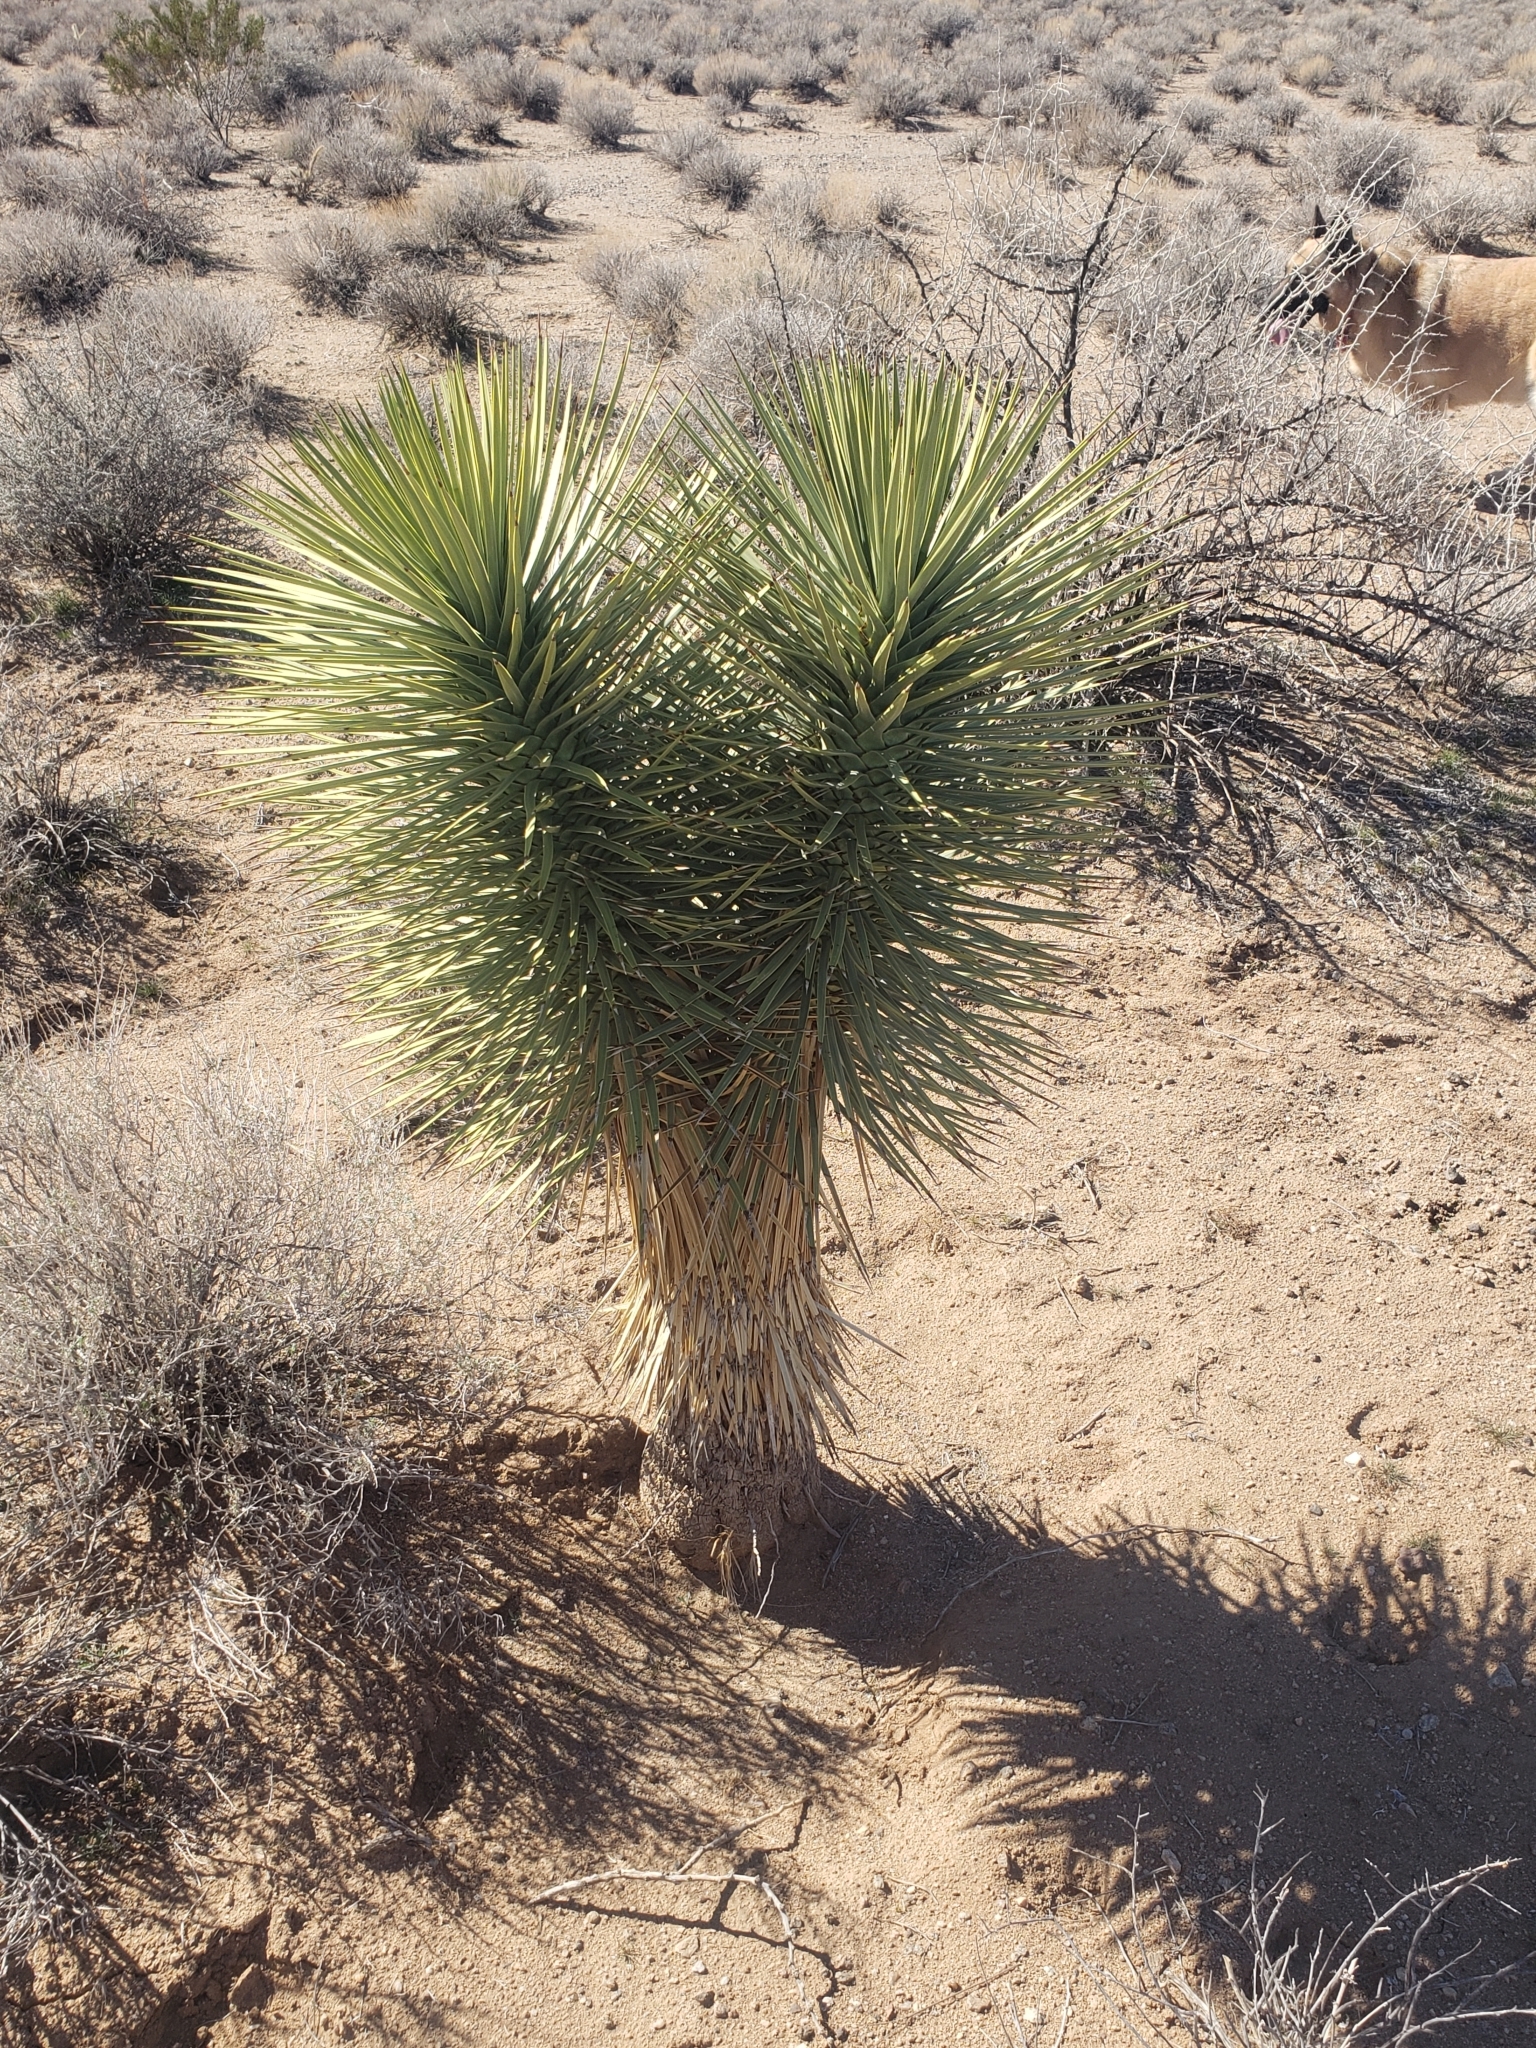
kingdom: Plantae
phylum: Tracheophyta
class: Liliopsida
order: Asparagales
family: Asparagaceae
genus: Yucca
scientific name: Yucca brevifolia
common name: Joshua tree
